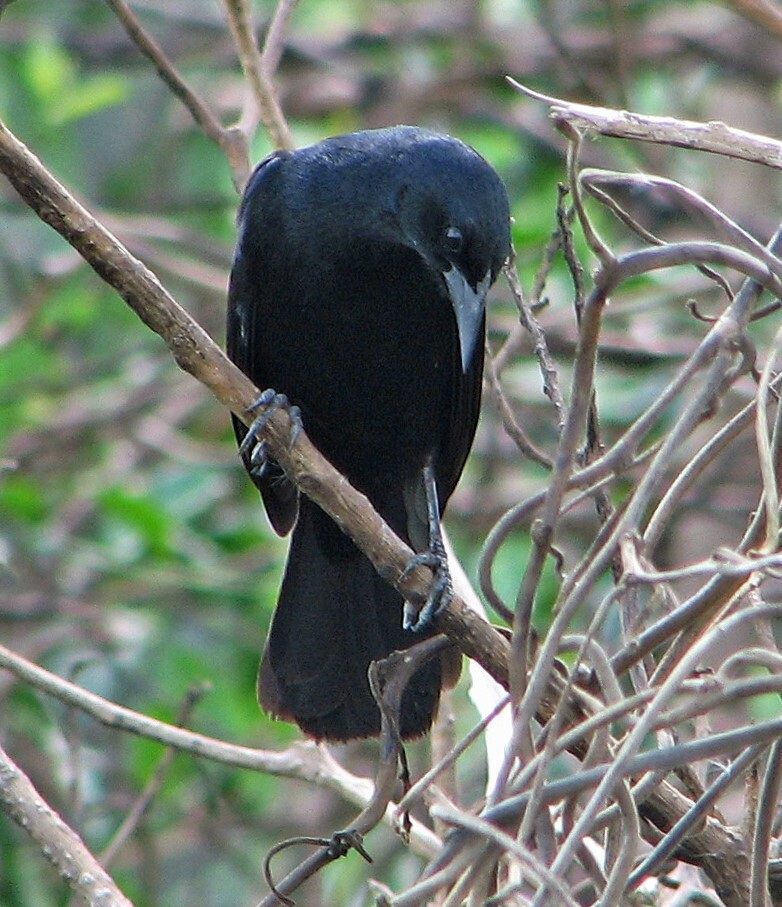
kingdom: Animalia
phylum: Chordata
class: Aves
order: Passeriformes
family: Icteridae
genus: Agelasticus
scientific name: Agelasticus cyanopus
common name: Unicolored blackbird
